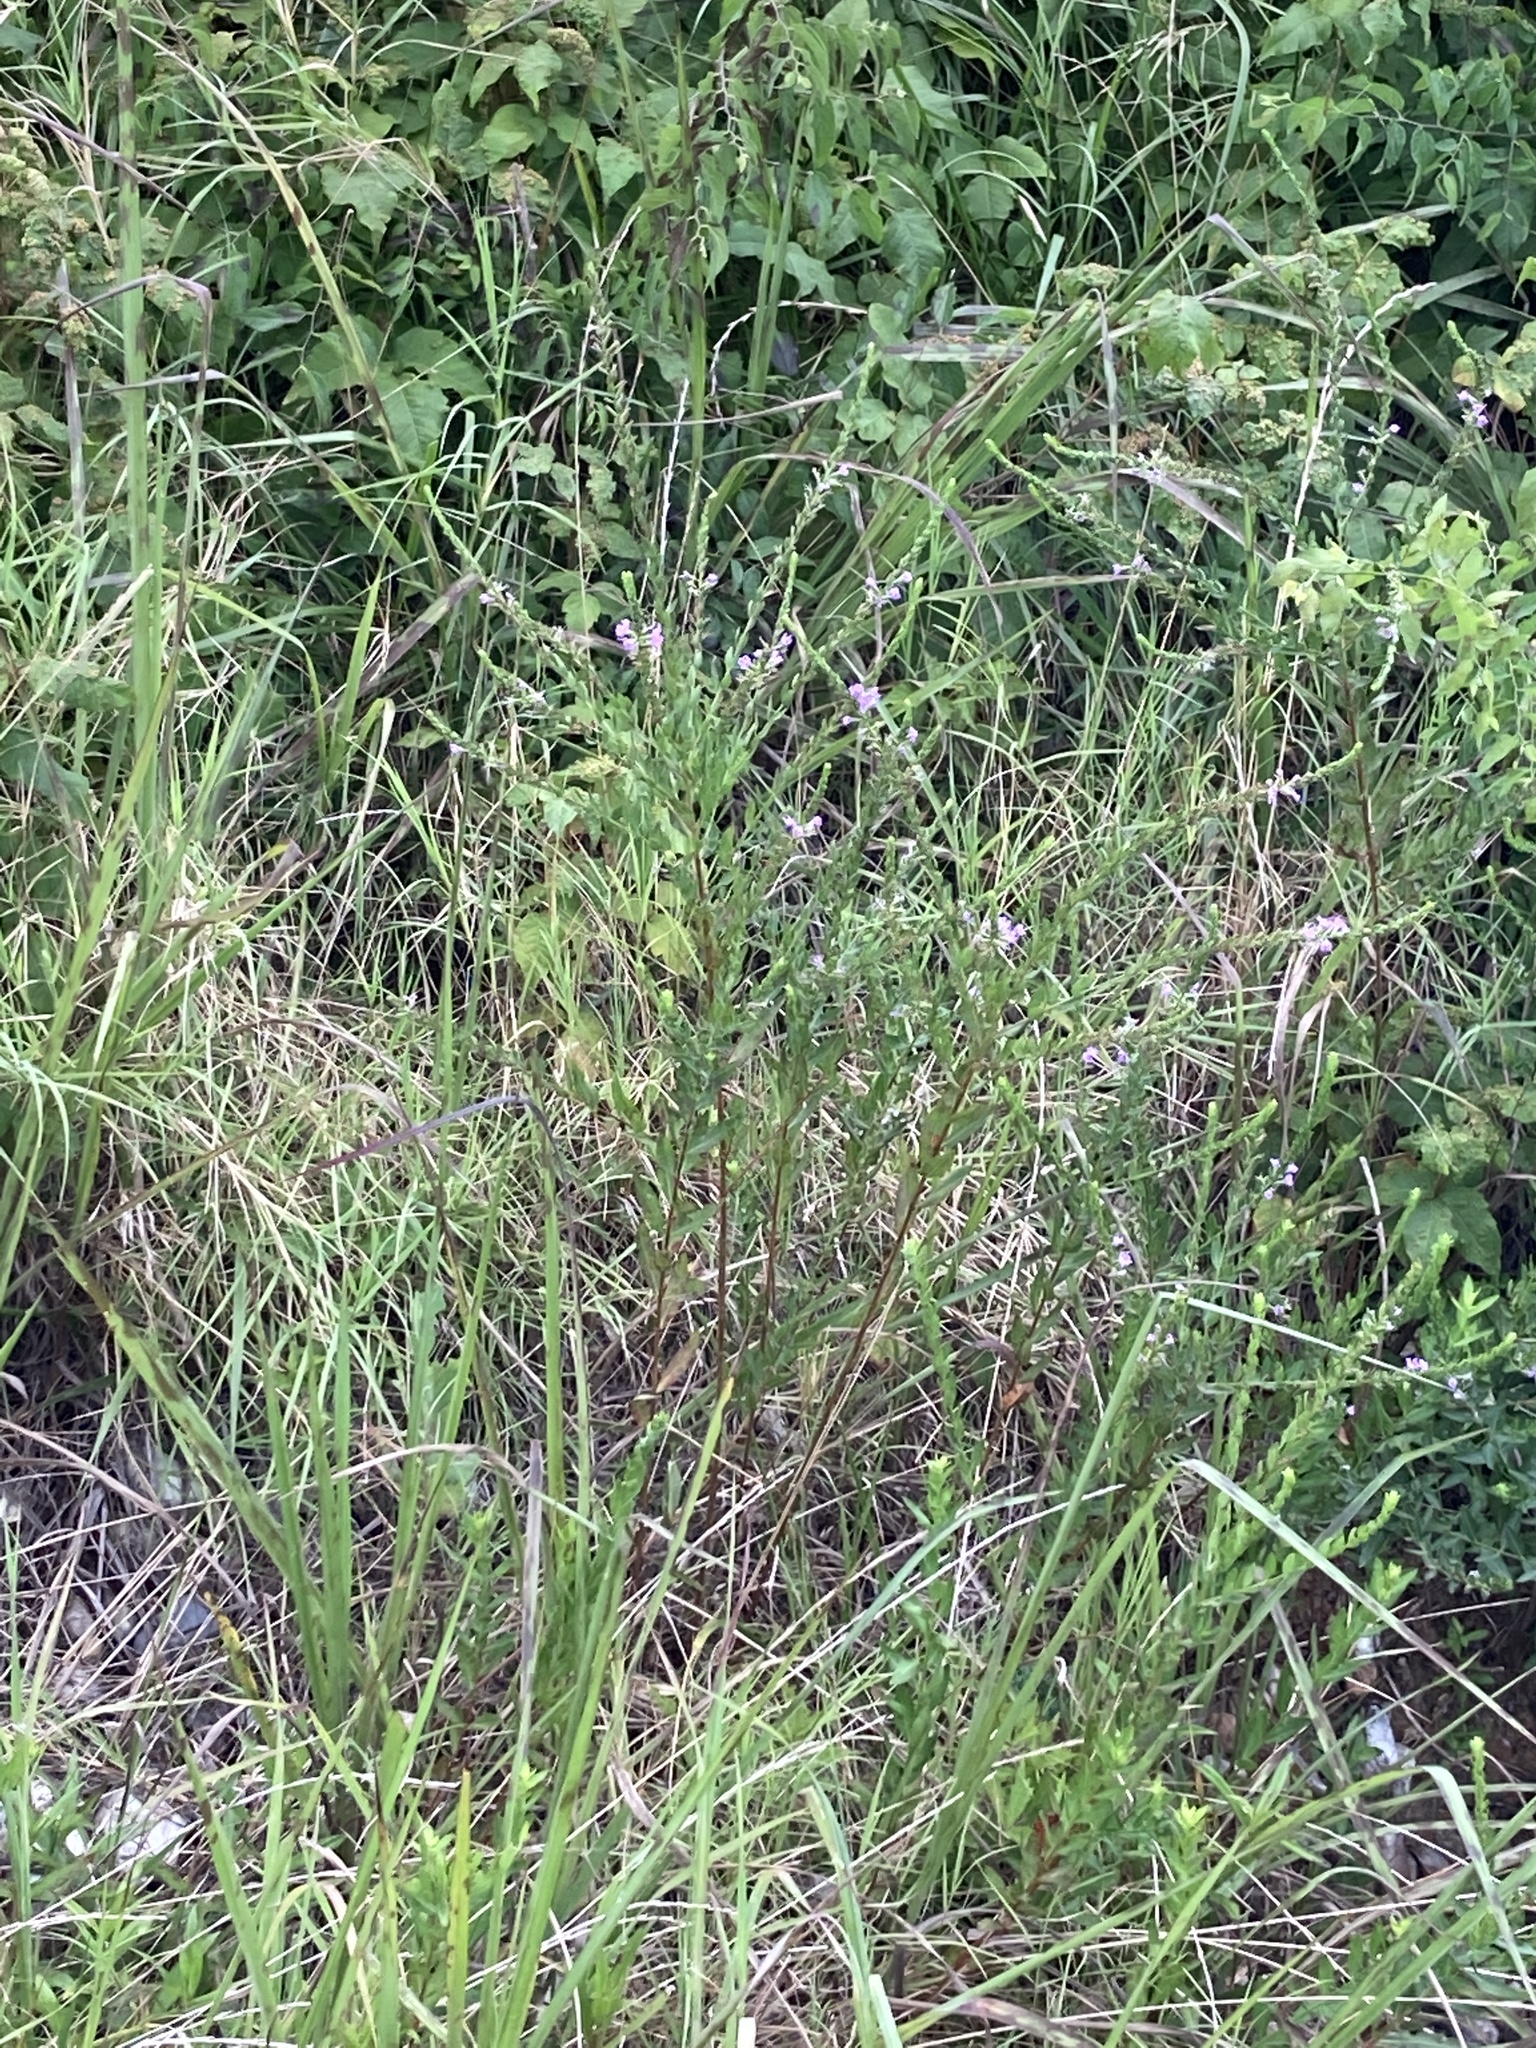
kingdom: Plantae
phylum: Tracheophyta
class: Magnoliopsida
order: Myrtales
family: Lythraceae
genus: Lythrum
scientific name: Lythrum alatum
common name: Winged loosestrife
